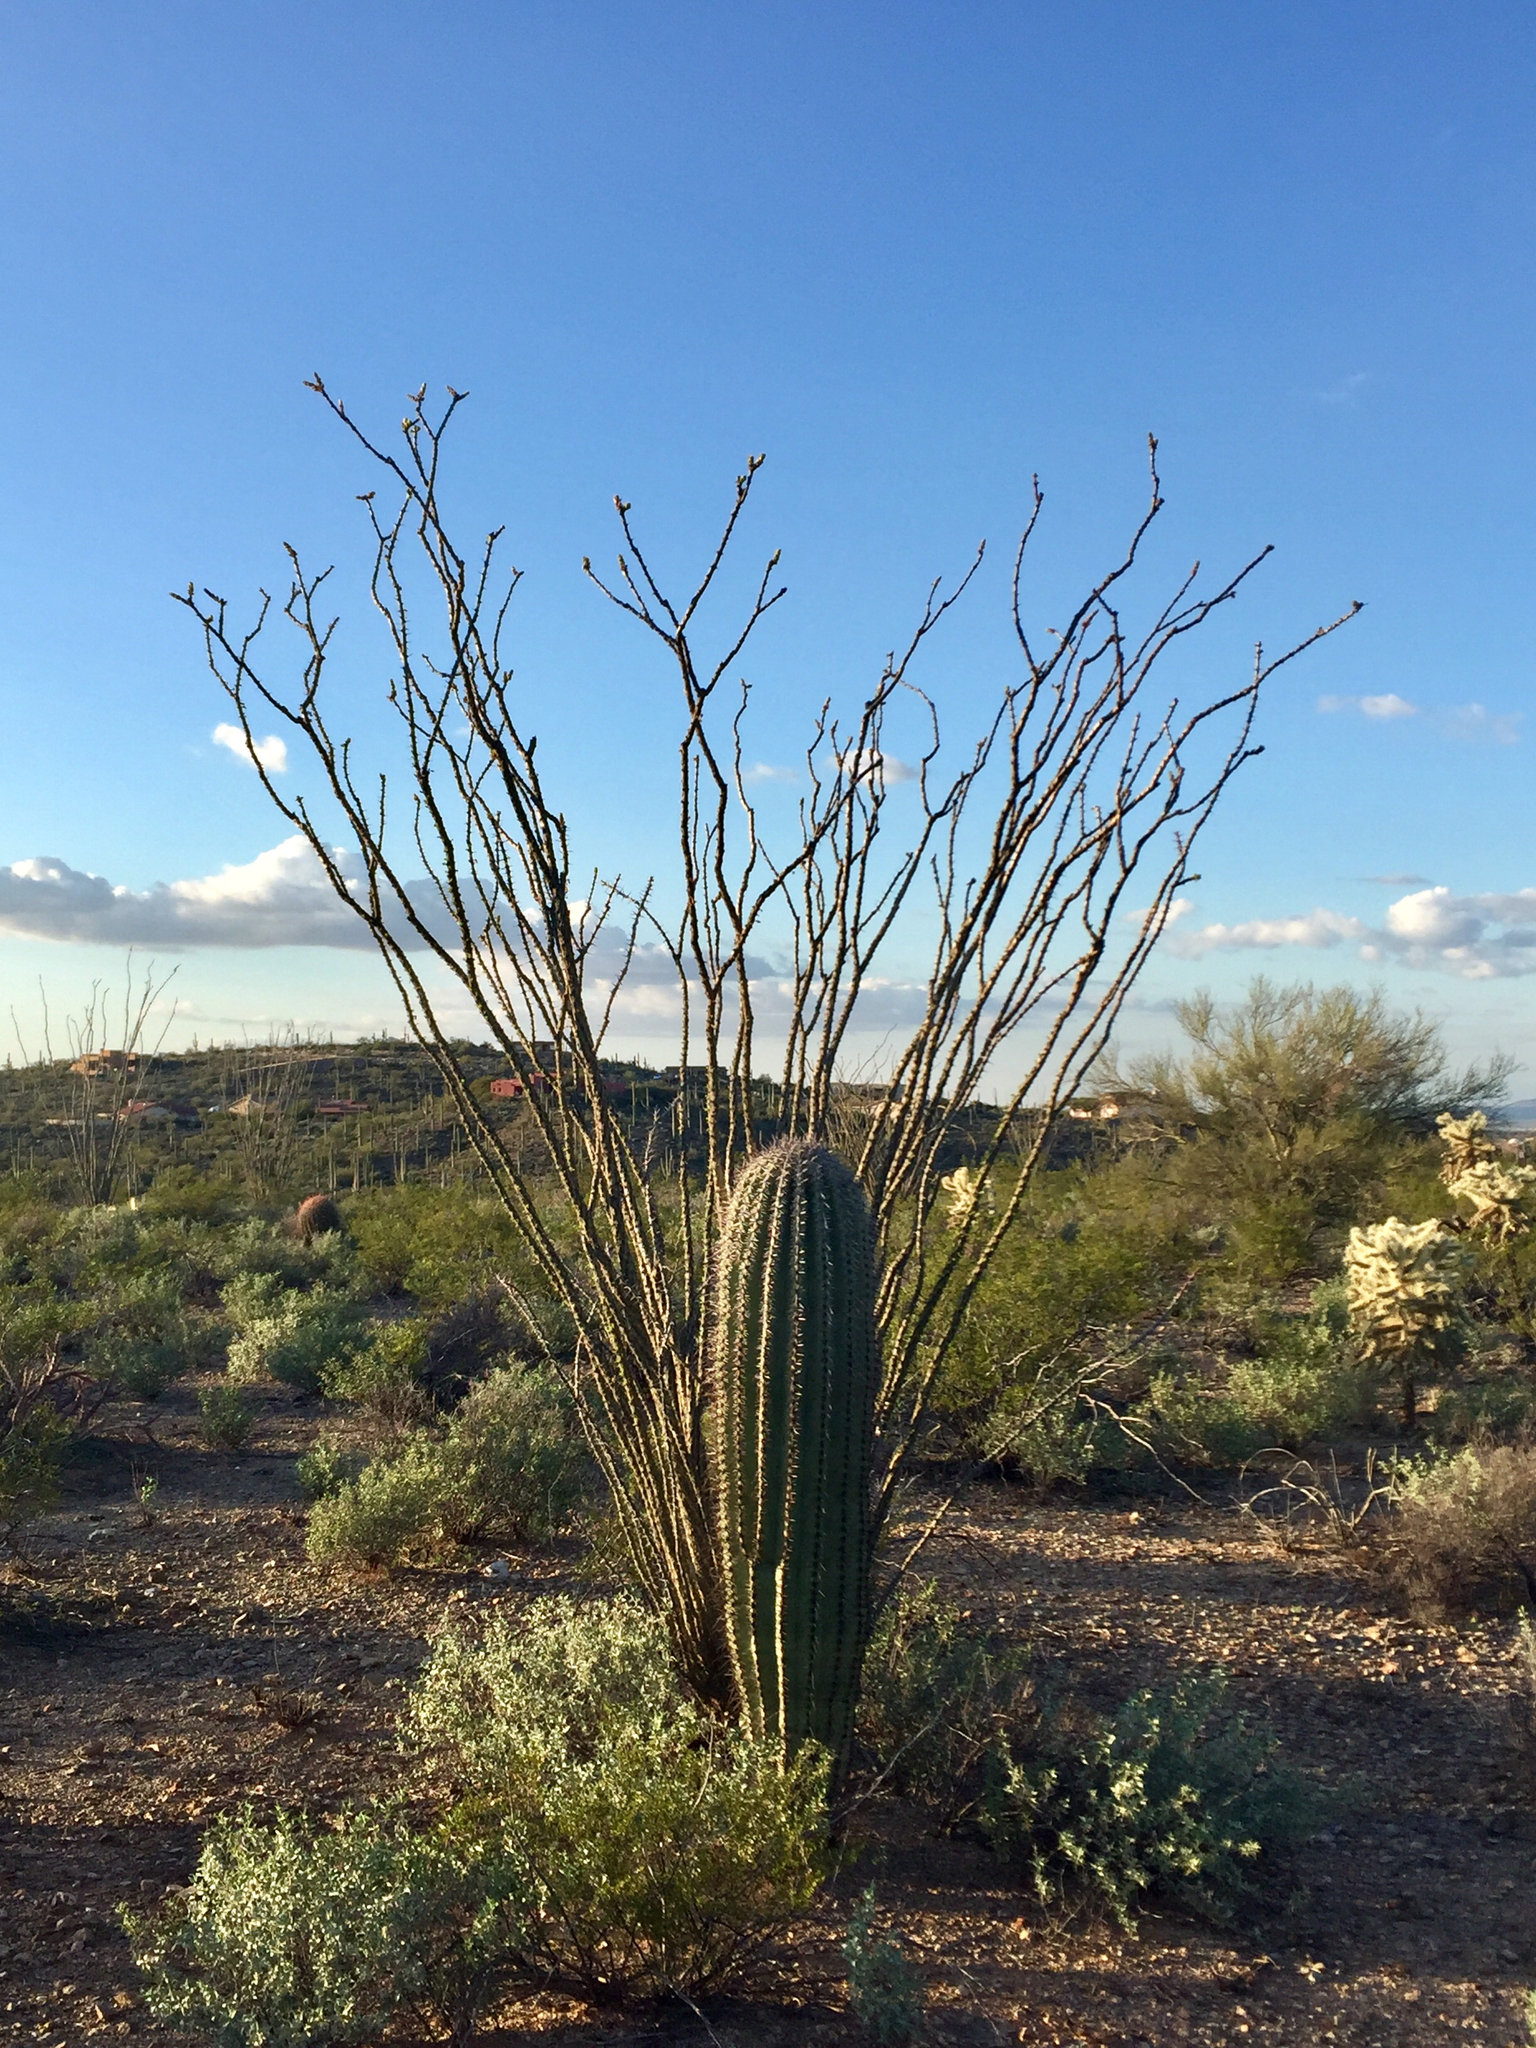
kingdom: Plantae
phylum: Tracheophyta
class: Magnoliopsida
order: Ericales
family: Fouquieriaceae
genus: Fouquieria
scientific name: Fouquieria splendens
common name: Vine-cactus
